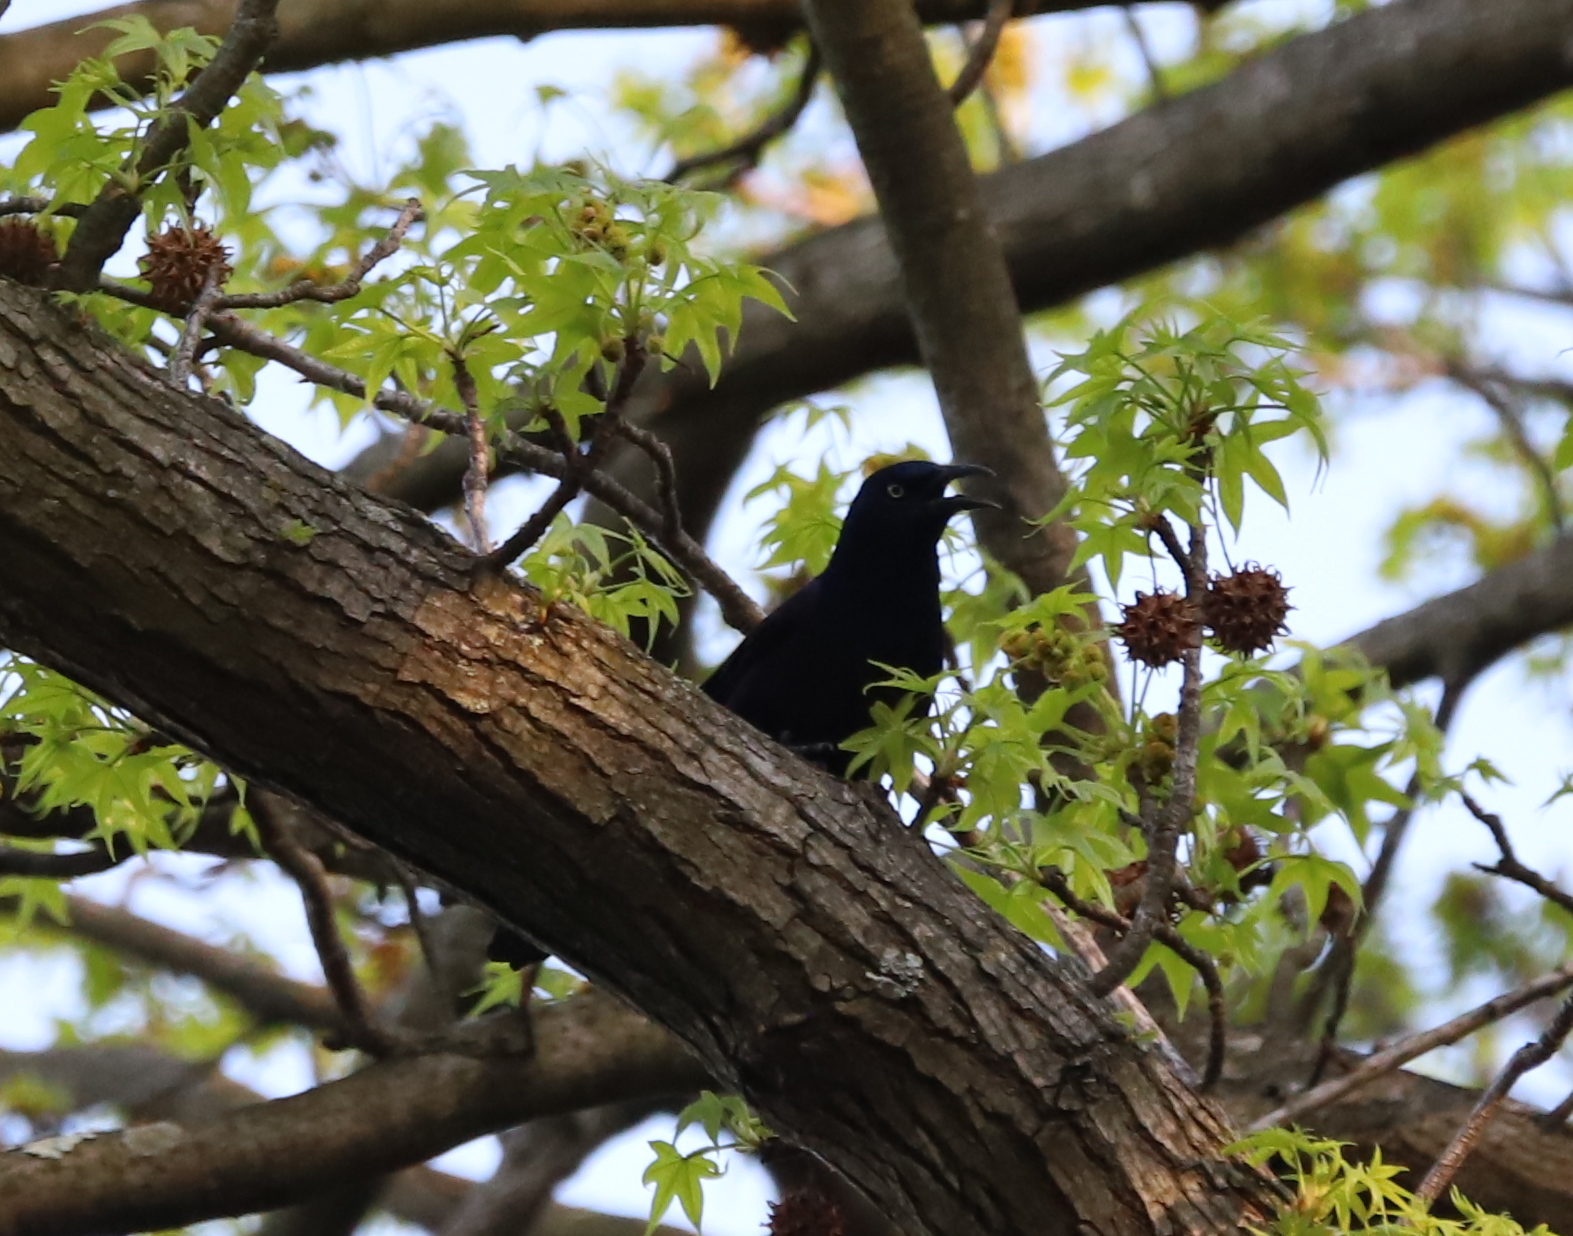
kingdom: Animalia
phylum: Chordata
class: Aves
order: Passeriformes
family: Icteridae
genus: Quiscalus
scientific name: Quiscalus quiscula
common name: Common grackle
